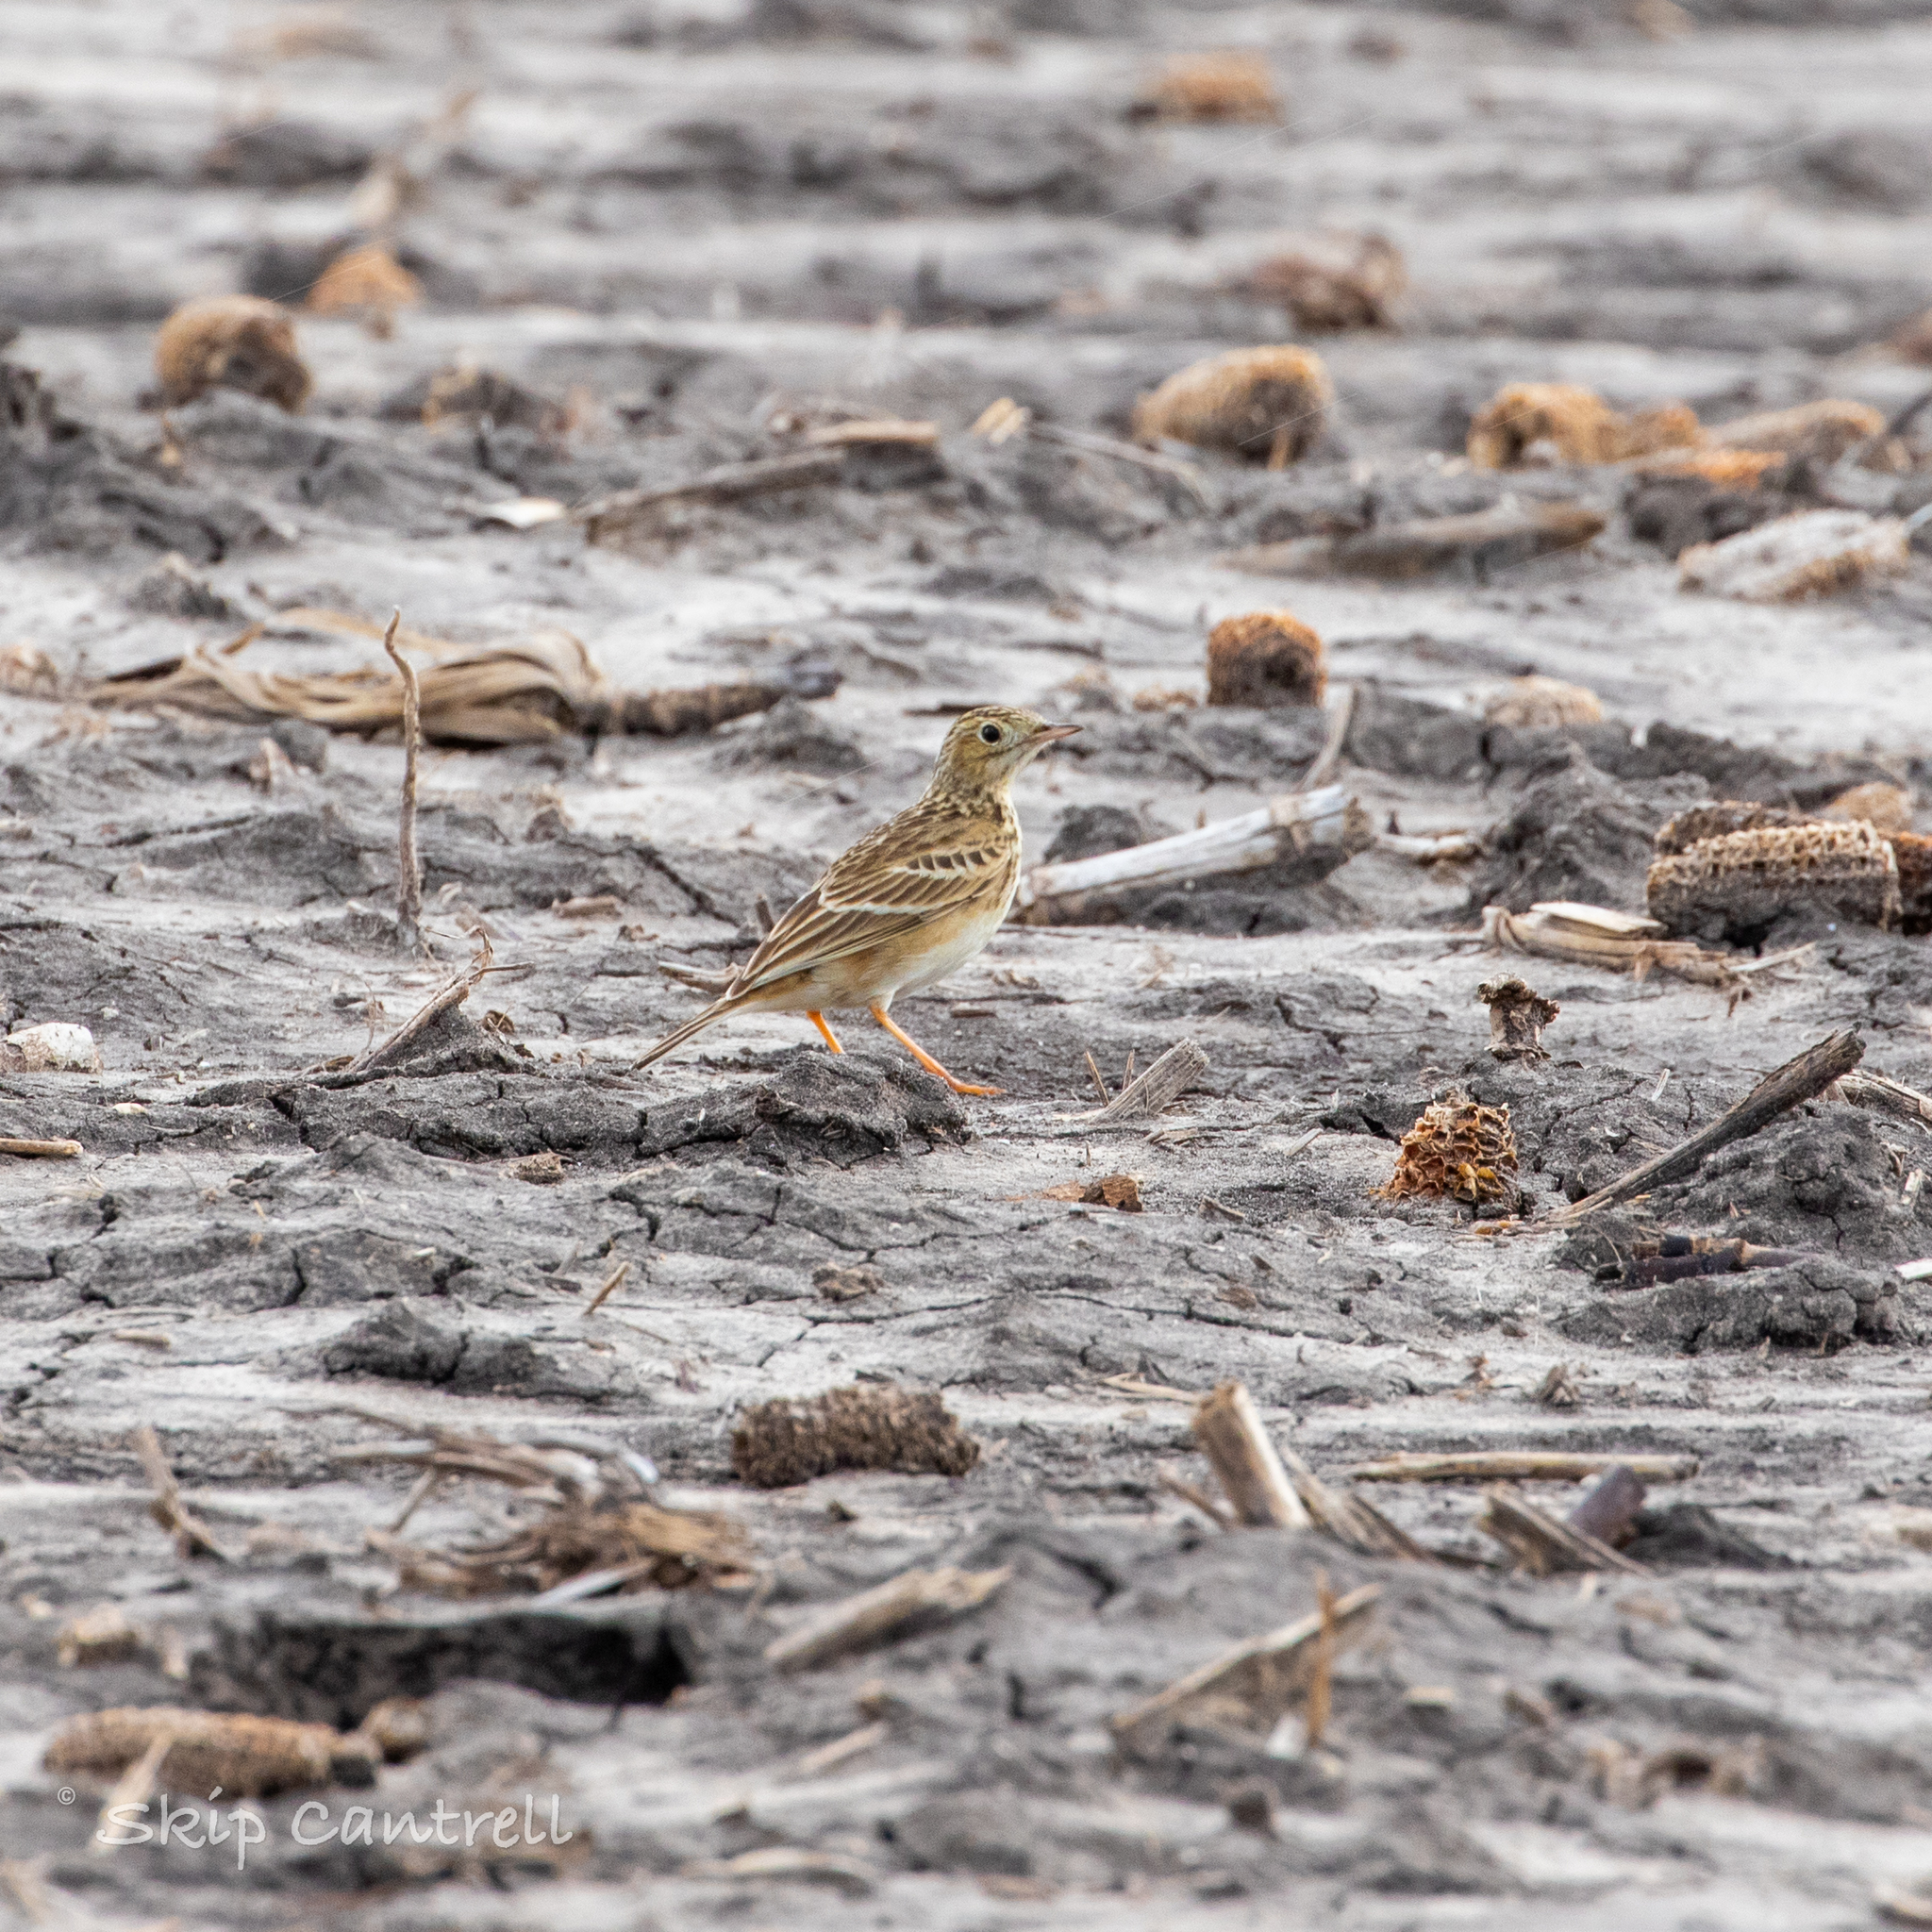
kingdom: Animalia
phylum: Chordata
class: Aves
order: Passeriformes
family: Motacillidae
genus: Anthus
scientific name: Anthus spragueii
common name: Sprague's pipit
